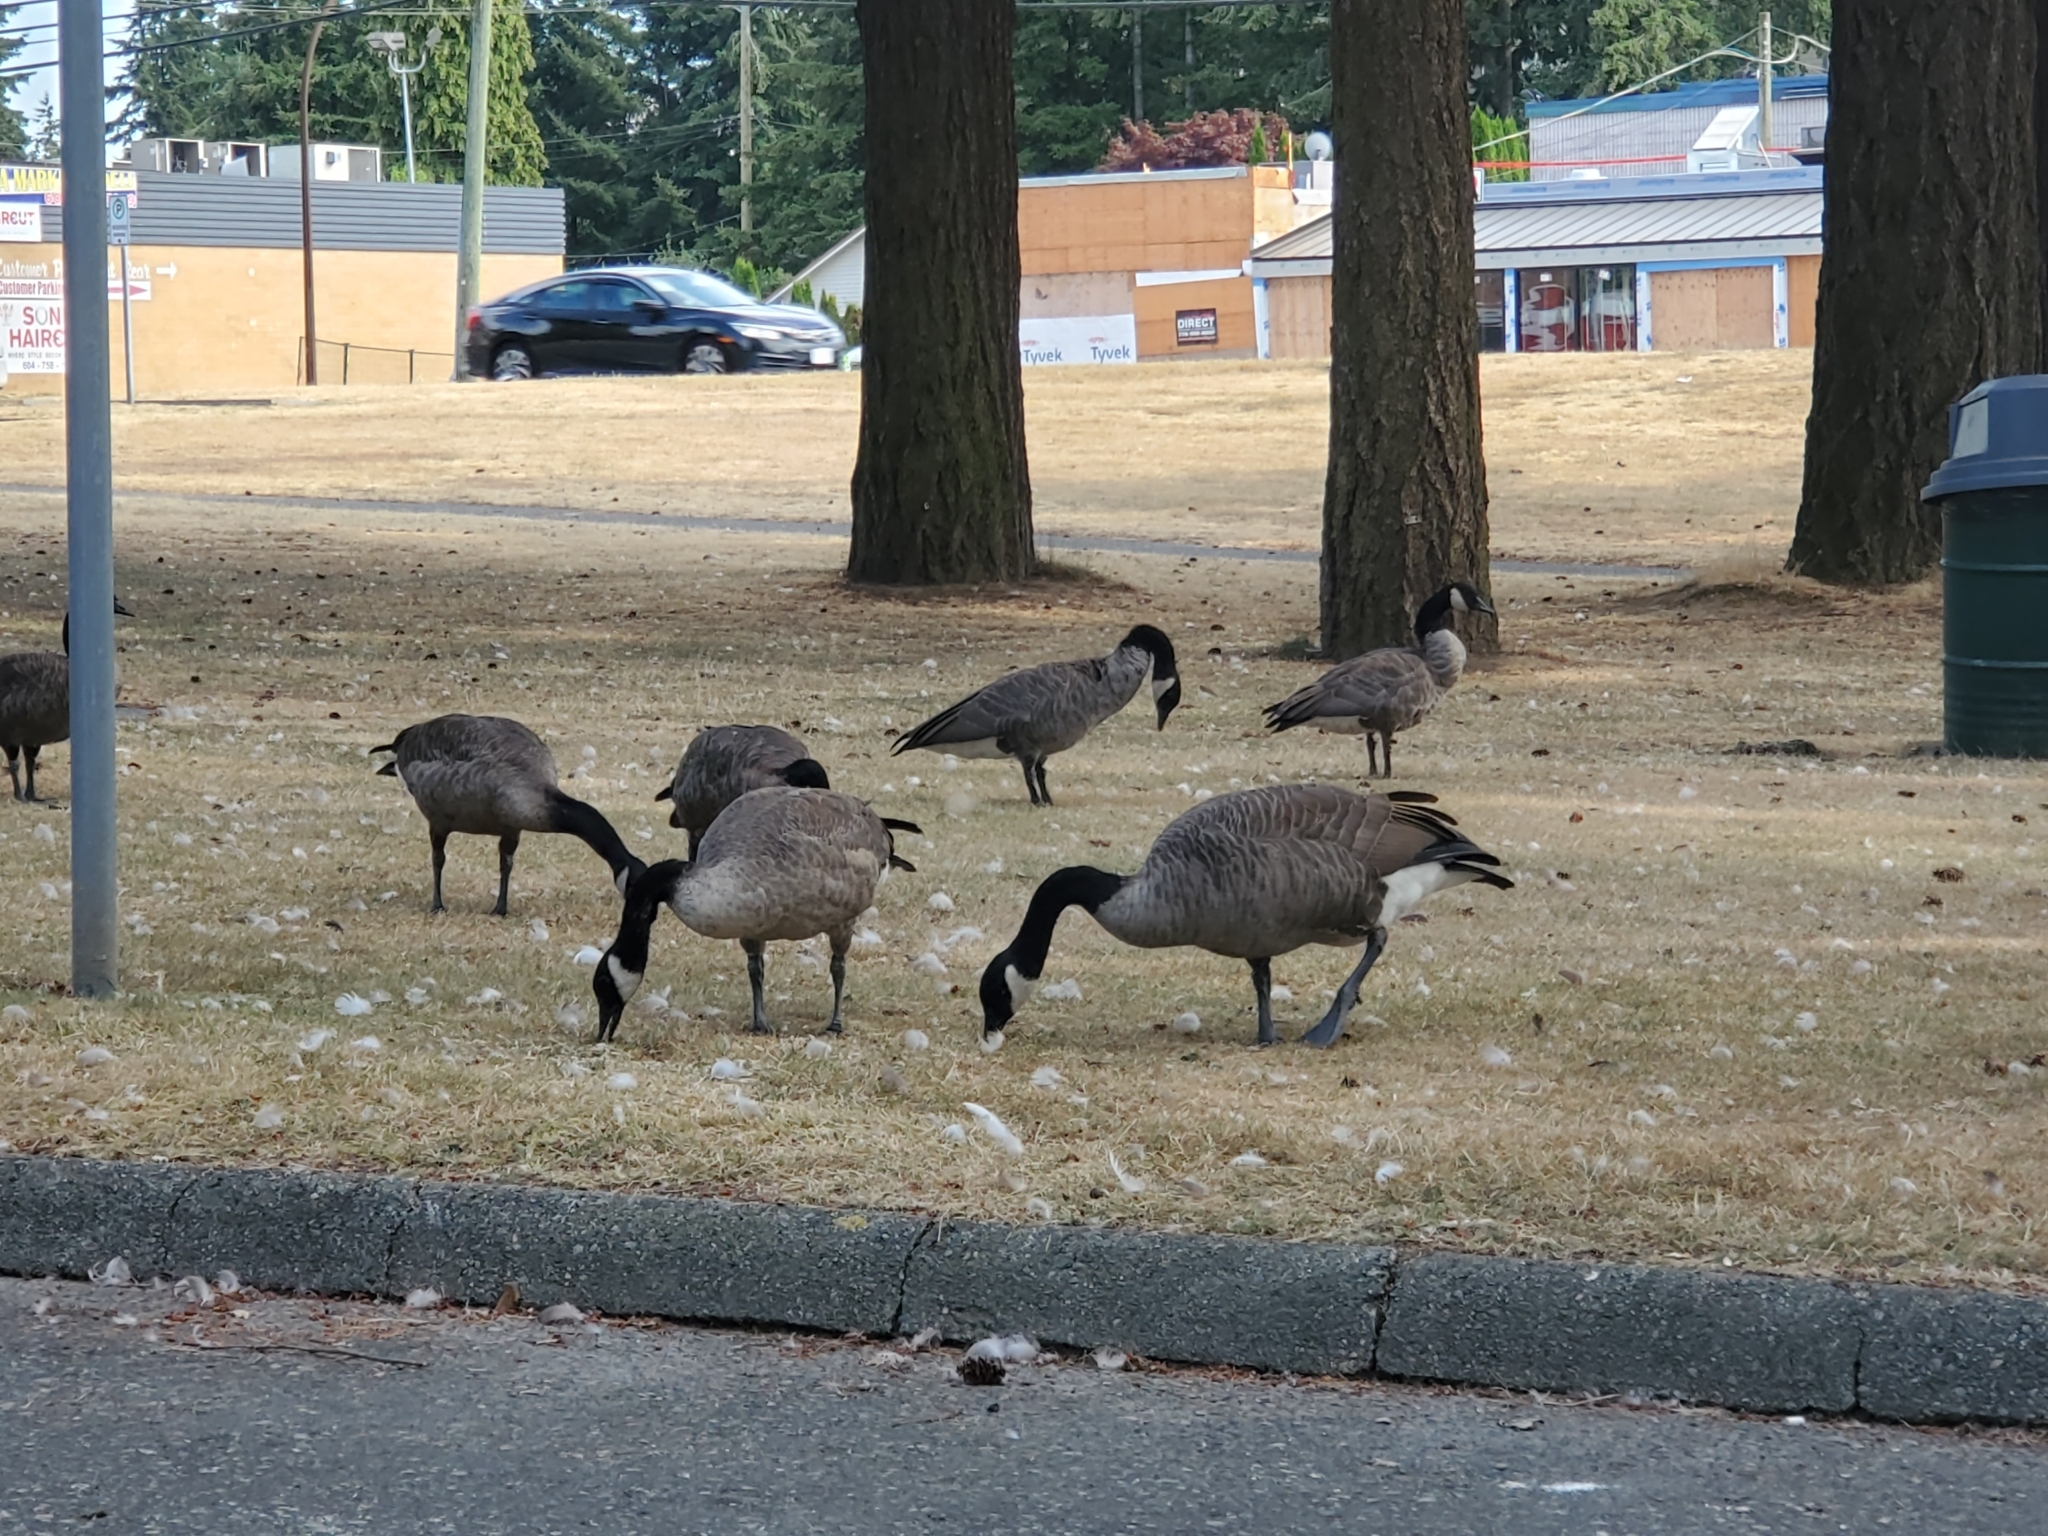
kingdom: Animalia
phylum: Chordata
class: Aves
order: Anseriformes
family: Anatidae
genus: Branta
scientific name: Branta canadensis
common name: Canada goose
